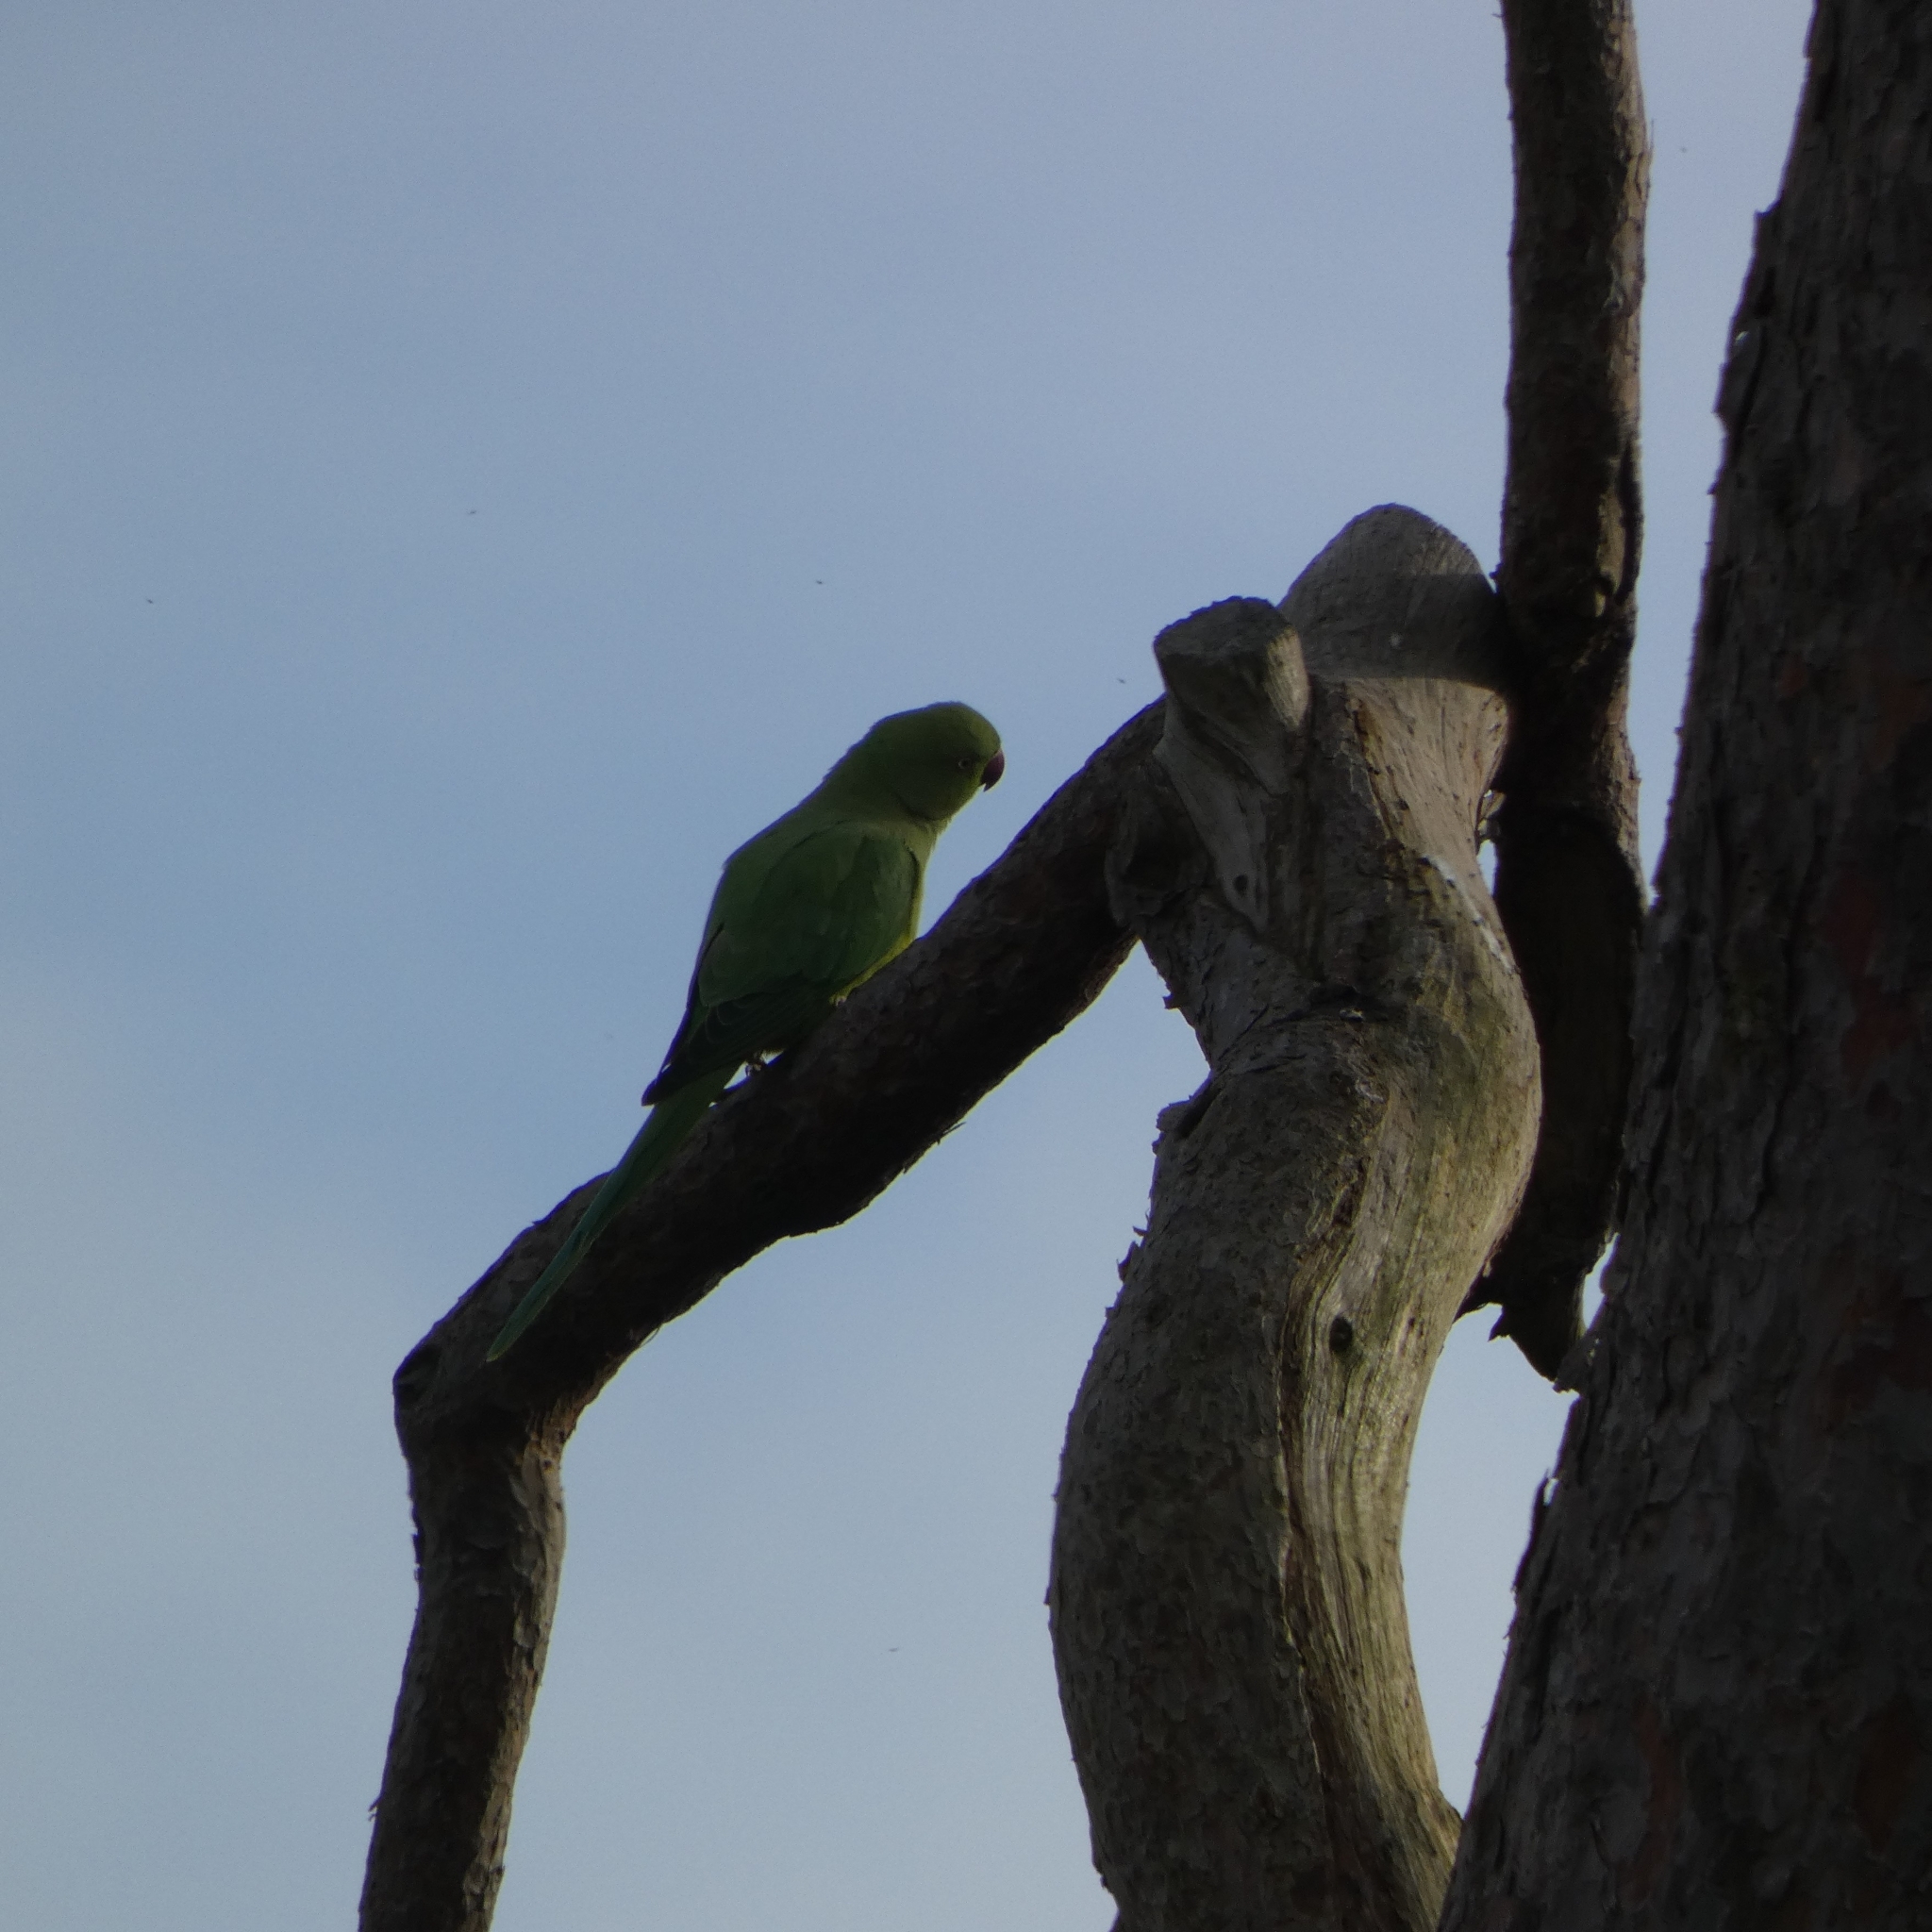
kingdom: Animalia
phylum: Chordata
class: Aves
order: Psittaciformes
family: Psittacidae
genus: Psittacula
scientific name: Psittacula krameri
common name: Rose-ringed parakeet
